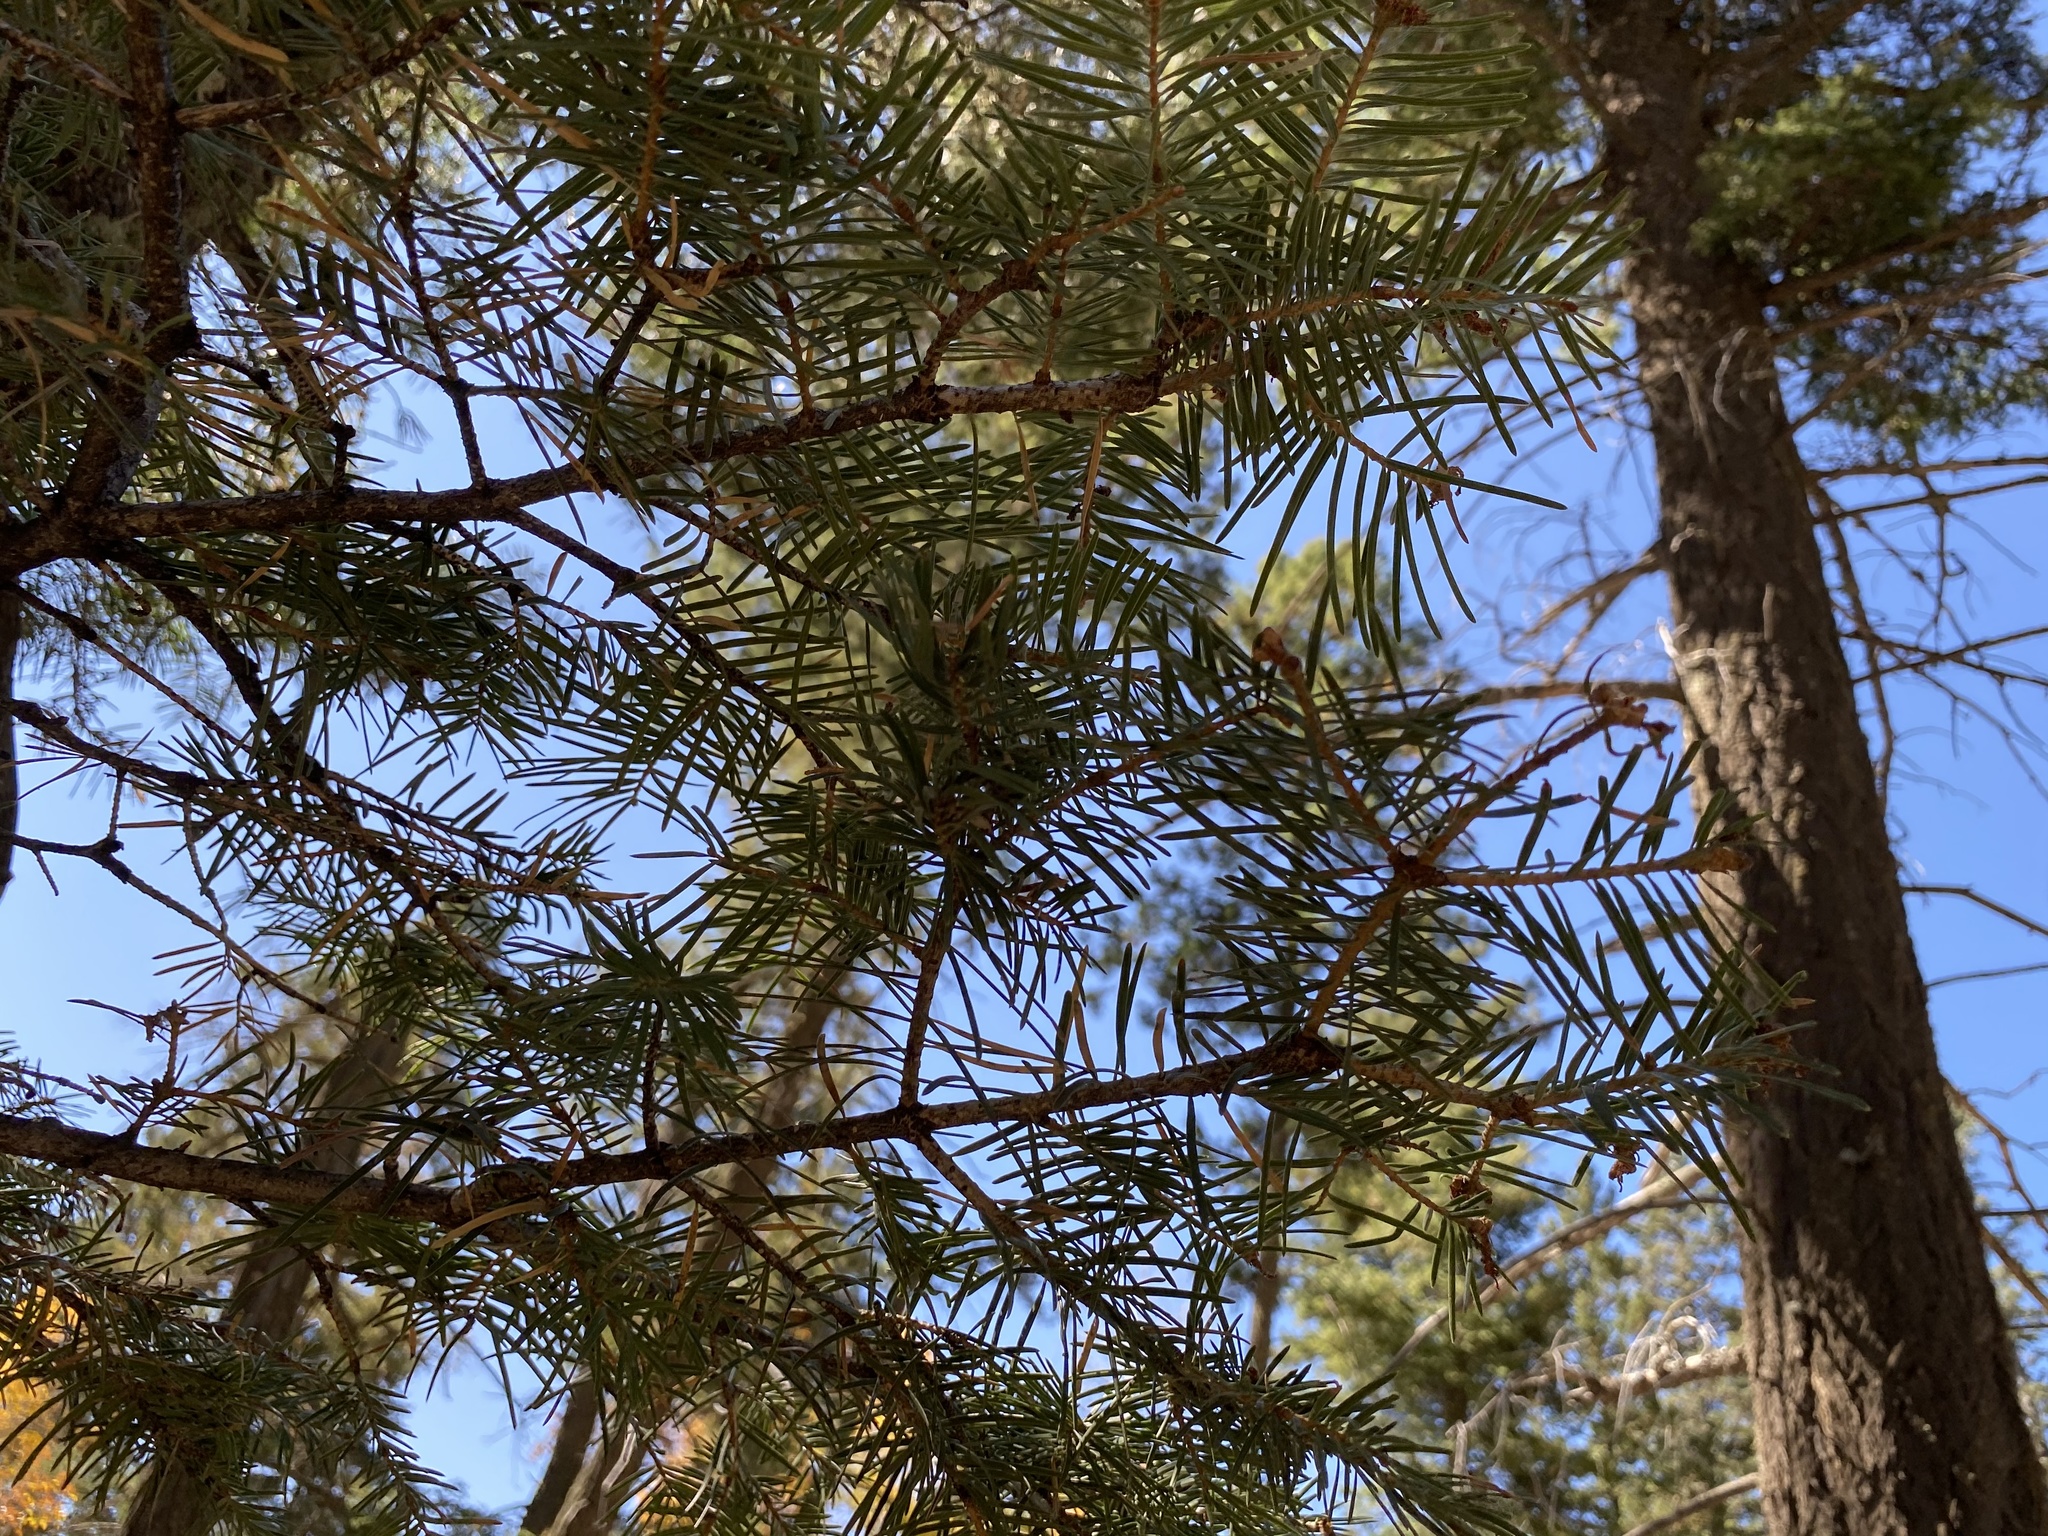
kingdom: Plantae
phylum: Tracheophyta
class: Pinopsida
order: Pinales
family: Pinaceae
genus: Abies
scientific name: Abies concolor
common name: Colorado fir
